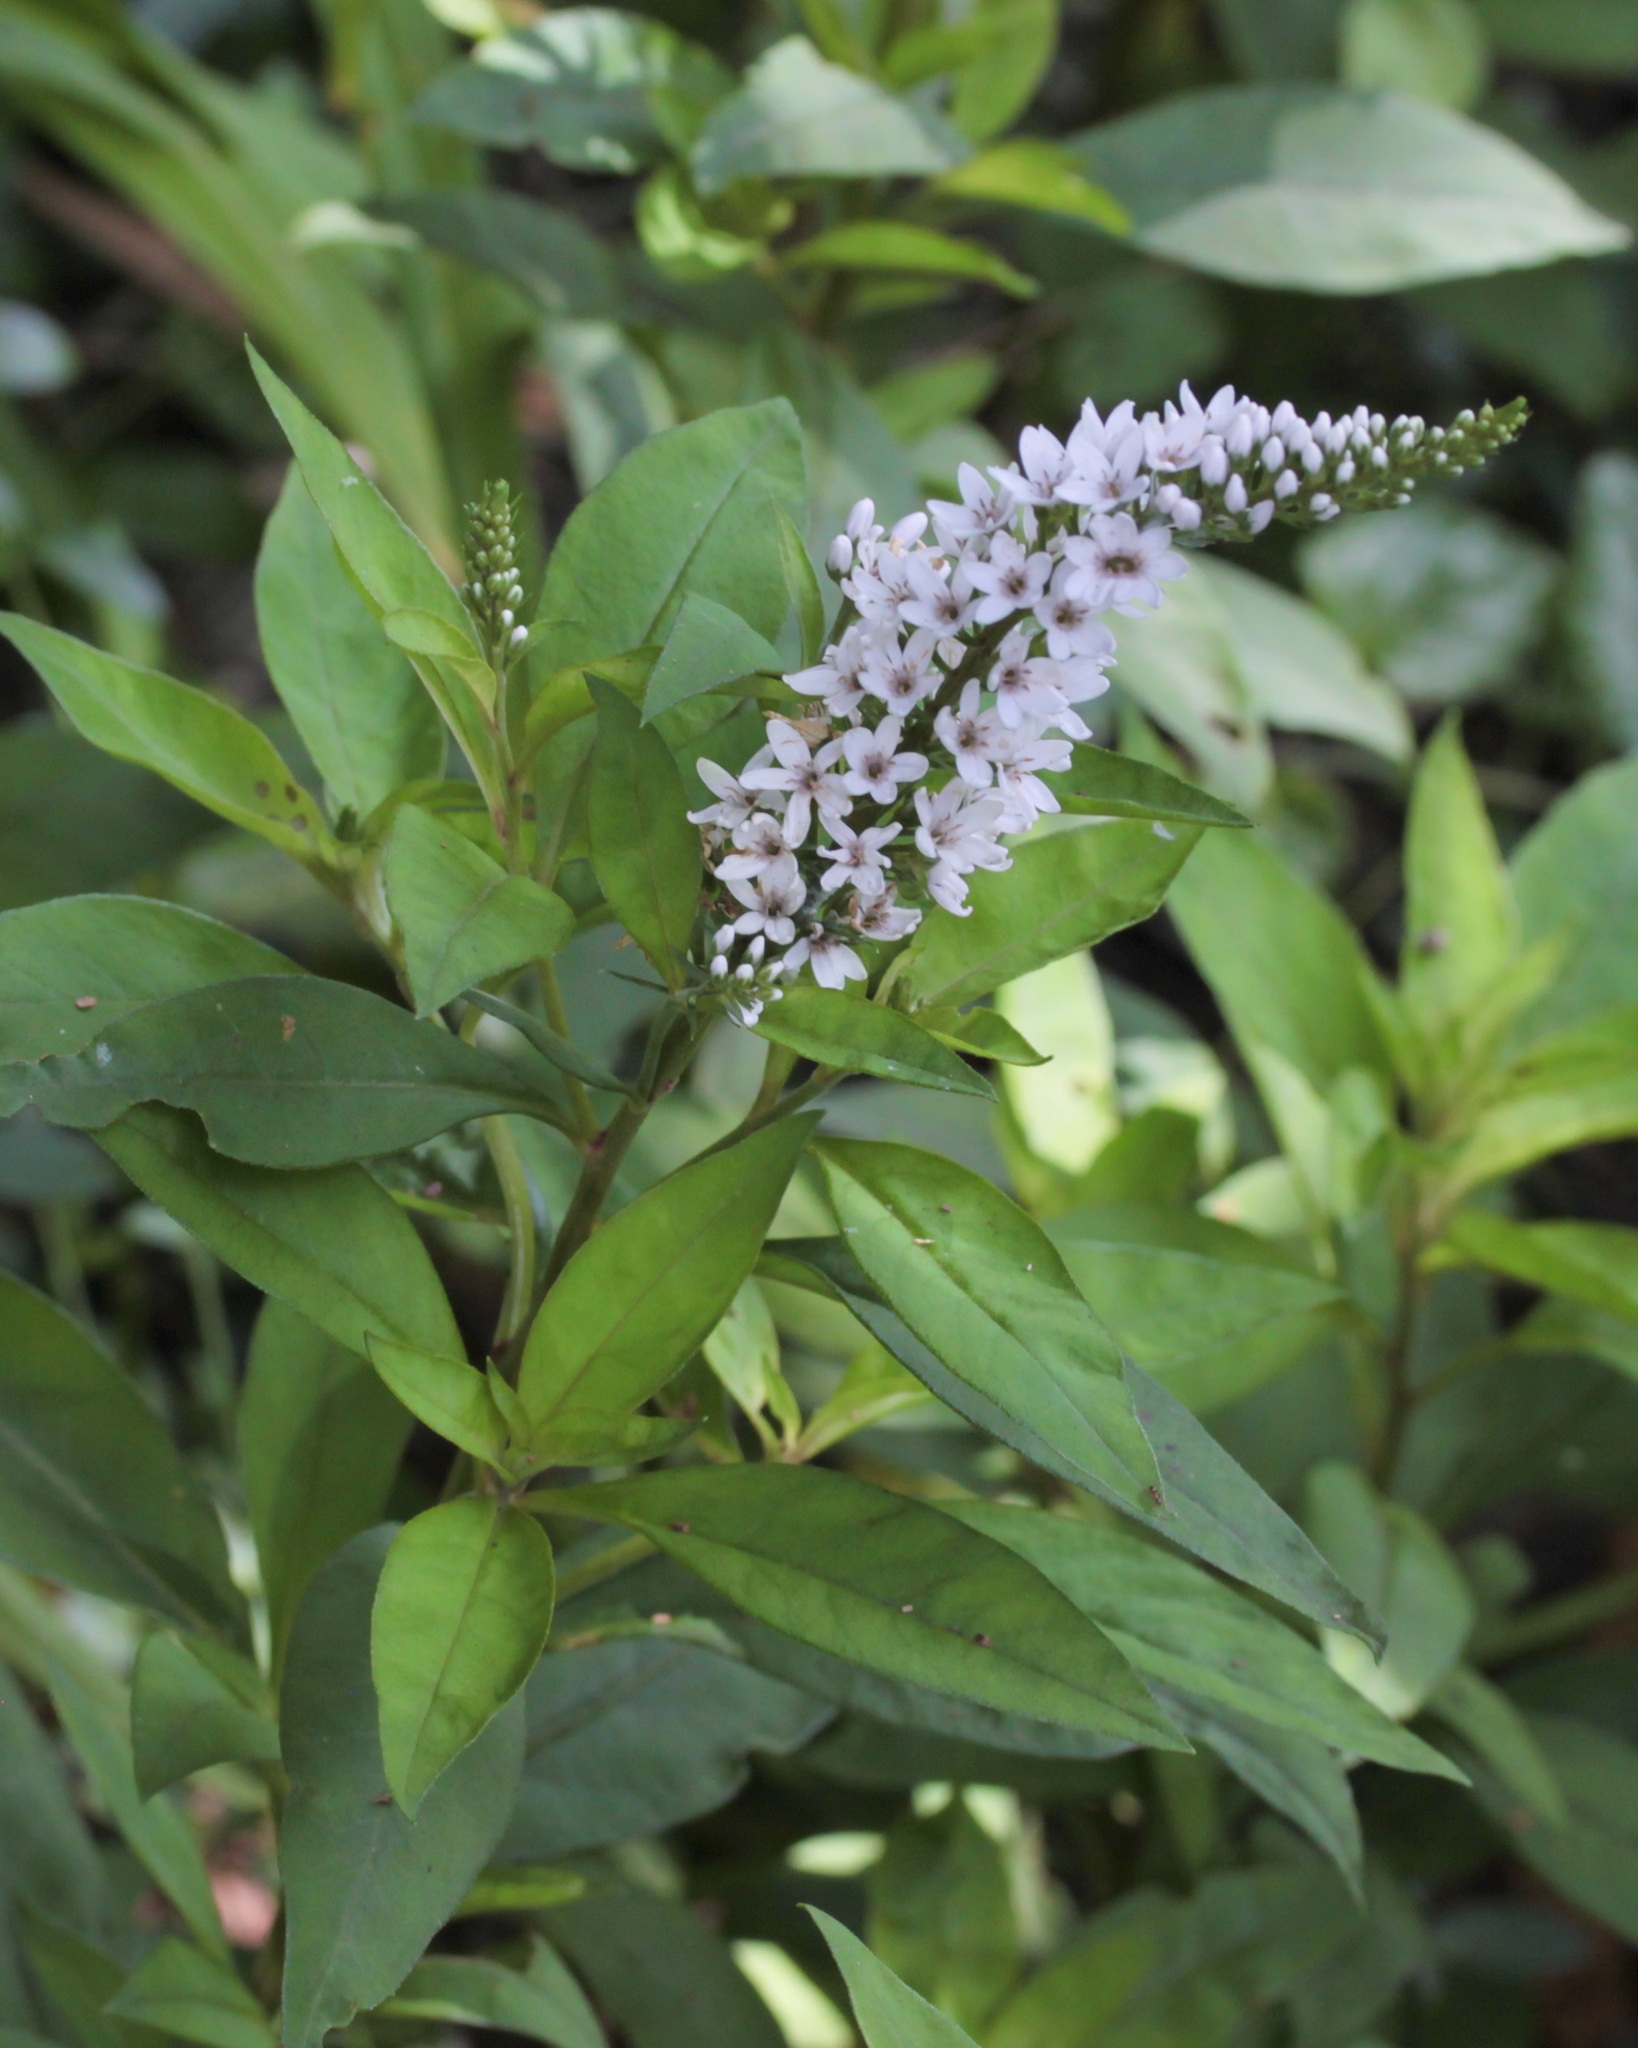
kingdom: Plantae
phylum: Tracheophyta
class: Magnoliopsida
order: Ericales
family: Primulaceae
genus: Lysimachia
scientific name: Lysimachia clethroides
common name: Gooseneck loosestrife
